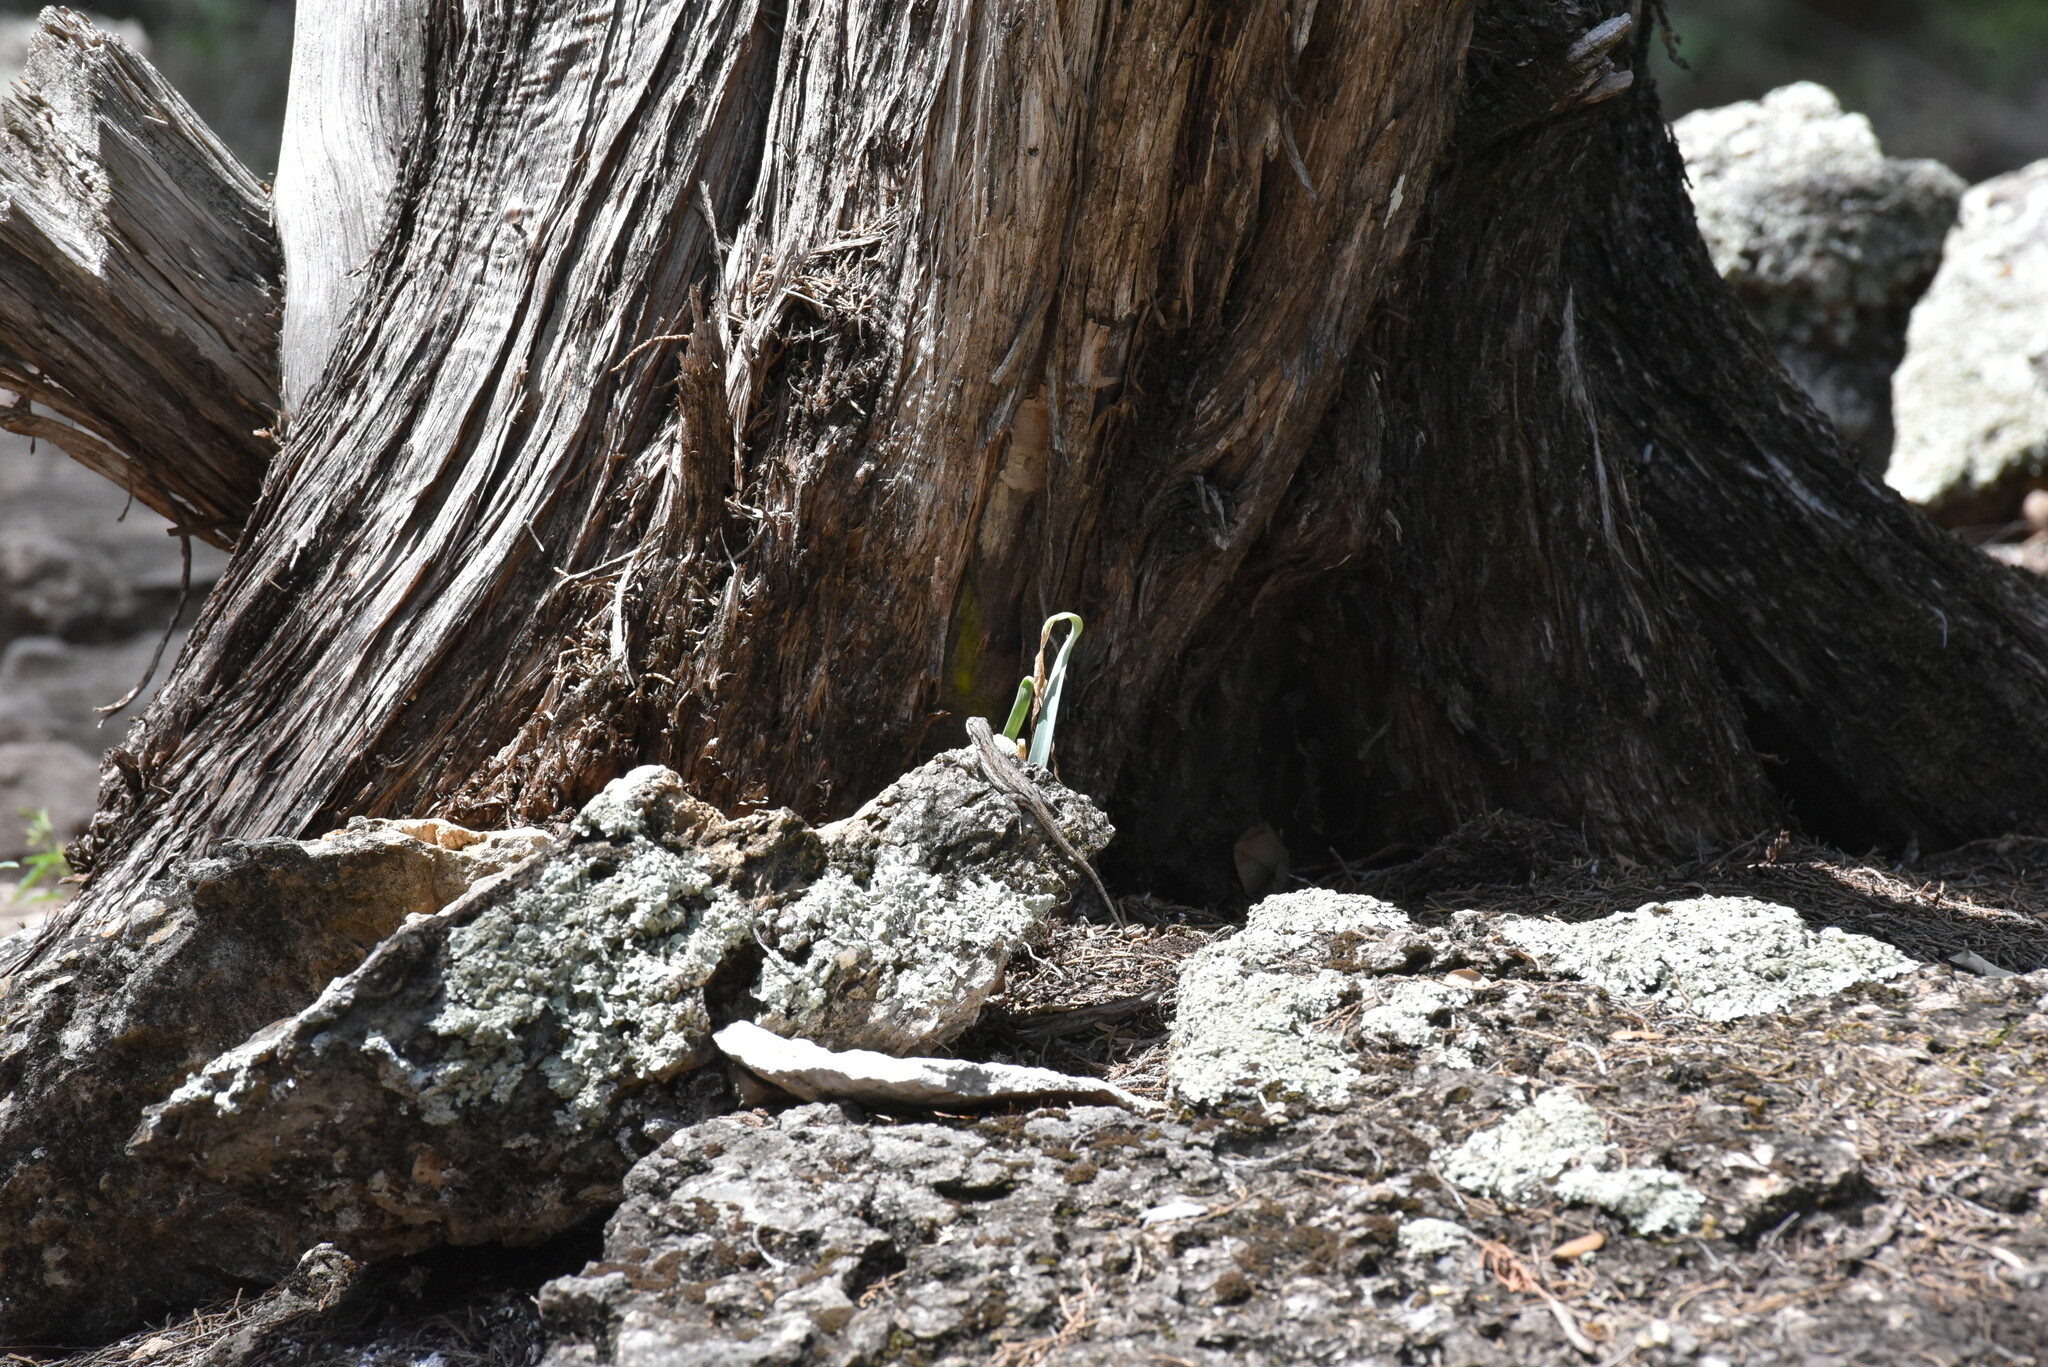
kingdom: Animalia
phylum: Chordata
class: Squamata
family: Phrynosomatidae
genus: Urosaurus
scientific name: Urosaurus ornatus
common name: Ornate tree lizard
